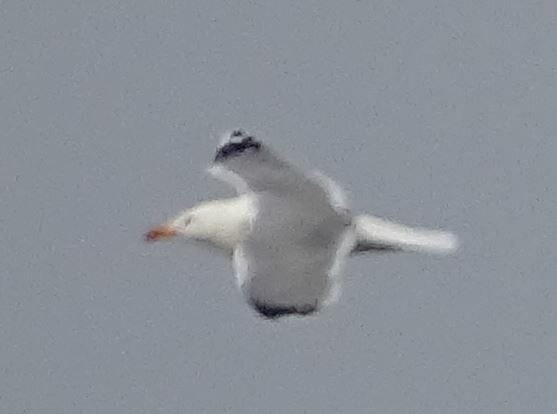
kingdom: Animalia
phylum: Chordata
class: Aves
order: Charadriiformes
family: Laridae
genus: Larus
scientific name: Larus michahellis
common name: Yellow-legged gull
